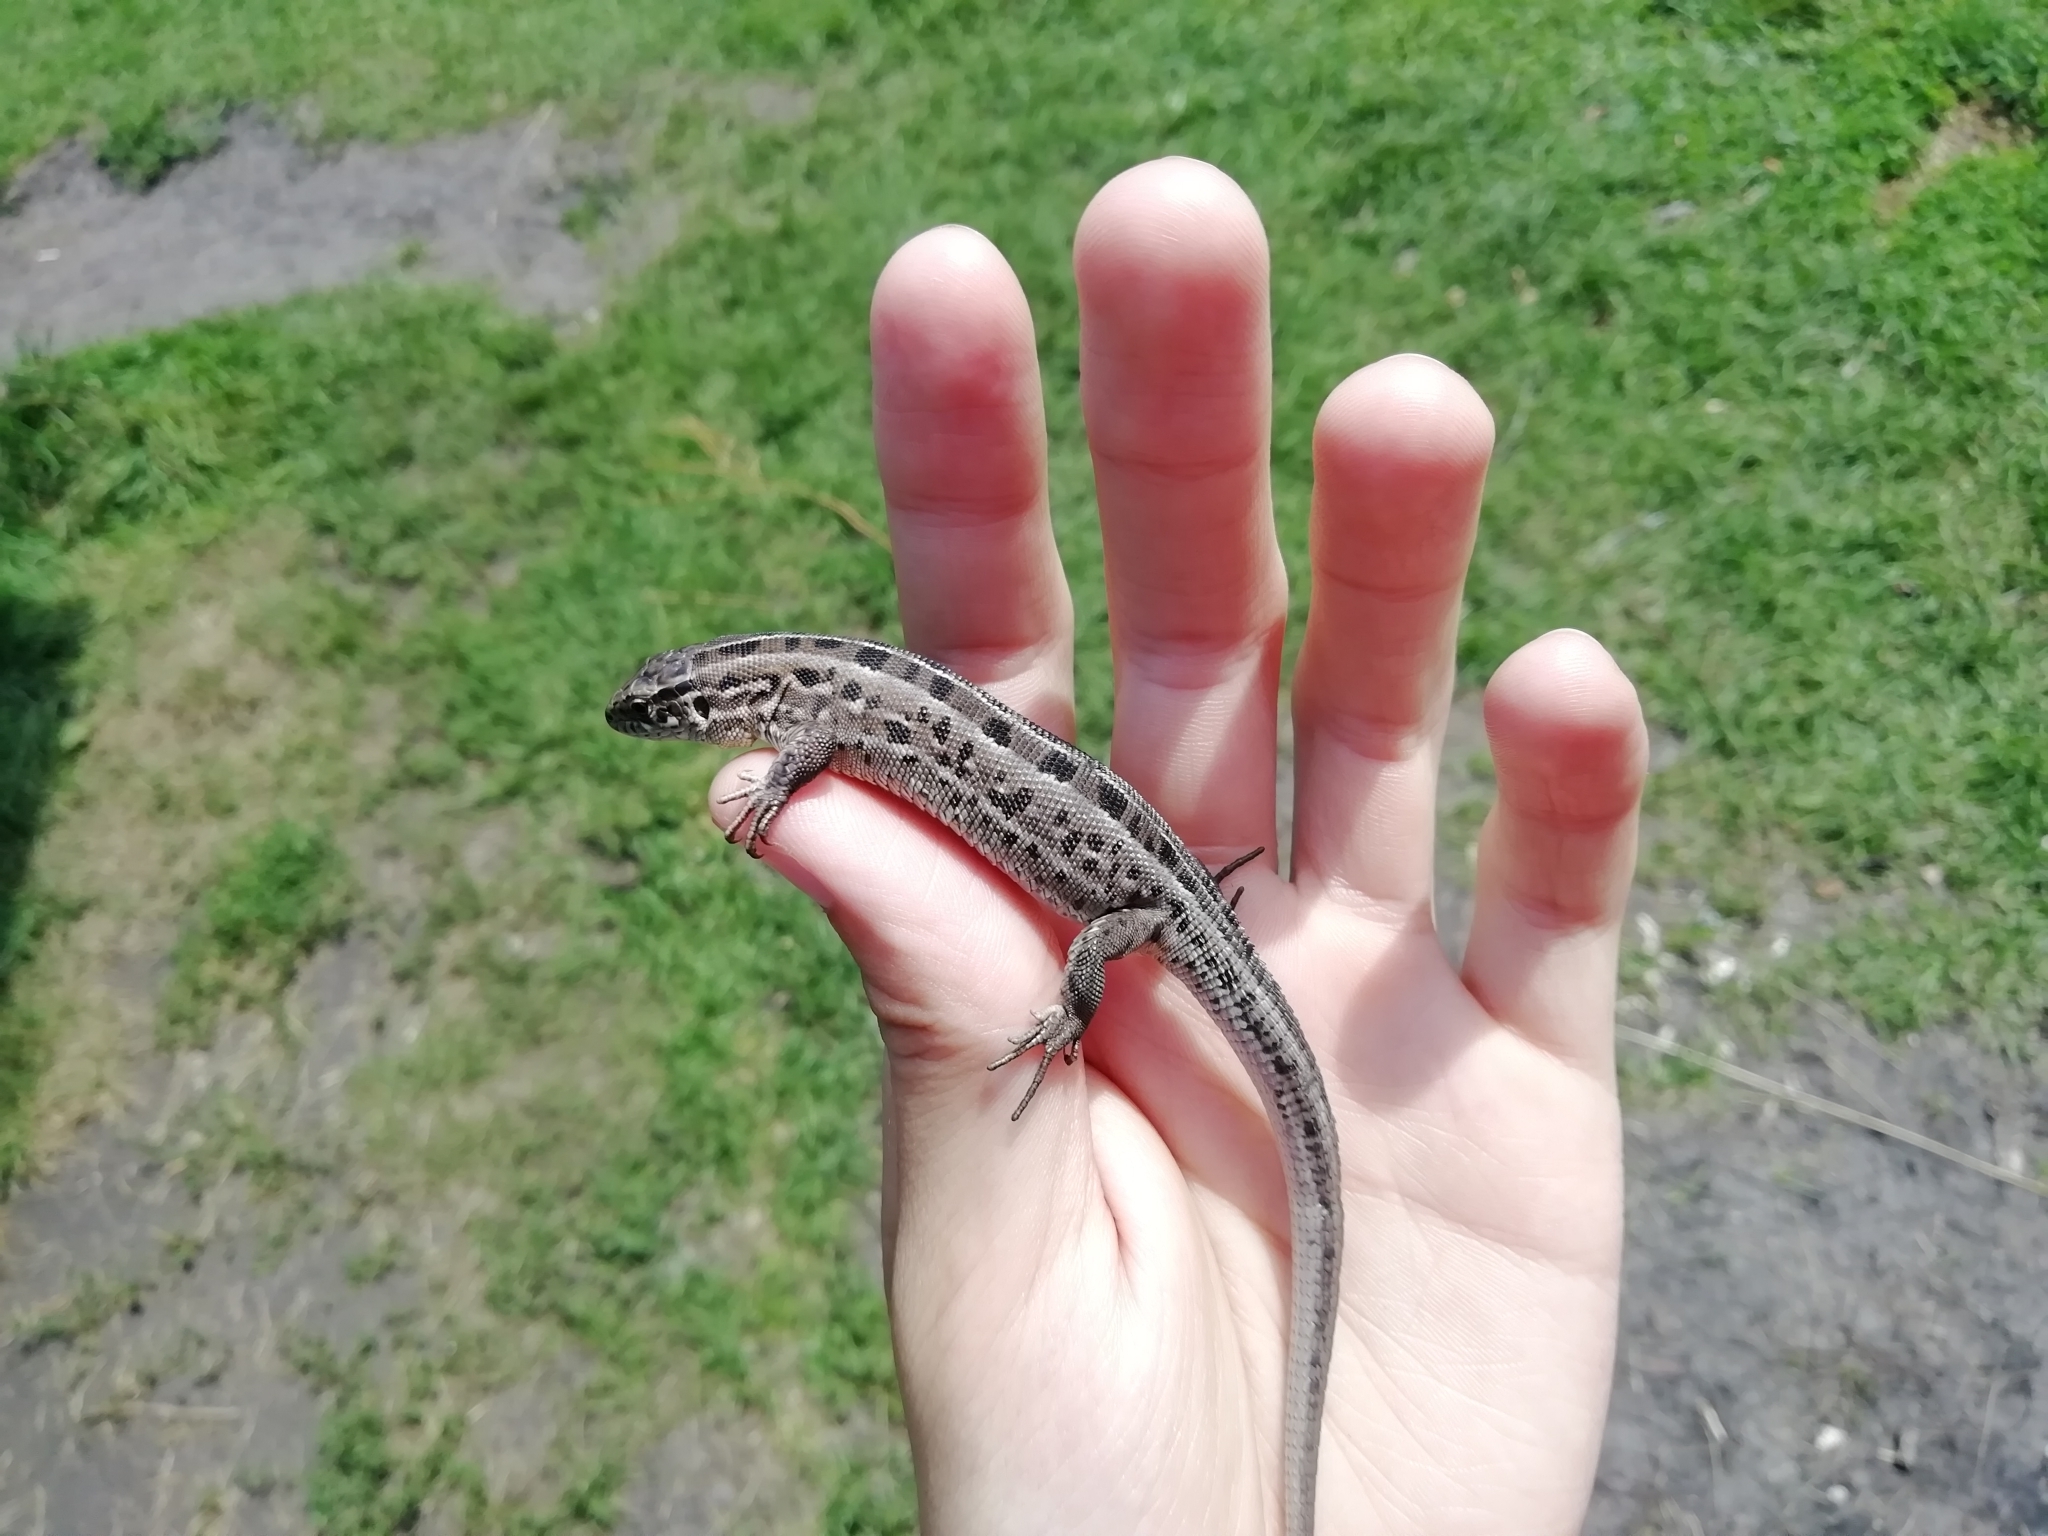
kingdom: Animalia
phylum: Chordata
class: Squamata
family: Lacertidae
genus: Lacerta
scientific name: Lacerta agilis
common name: Sand lizard
